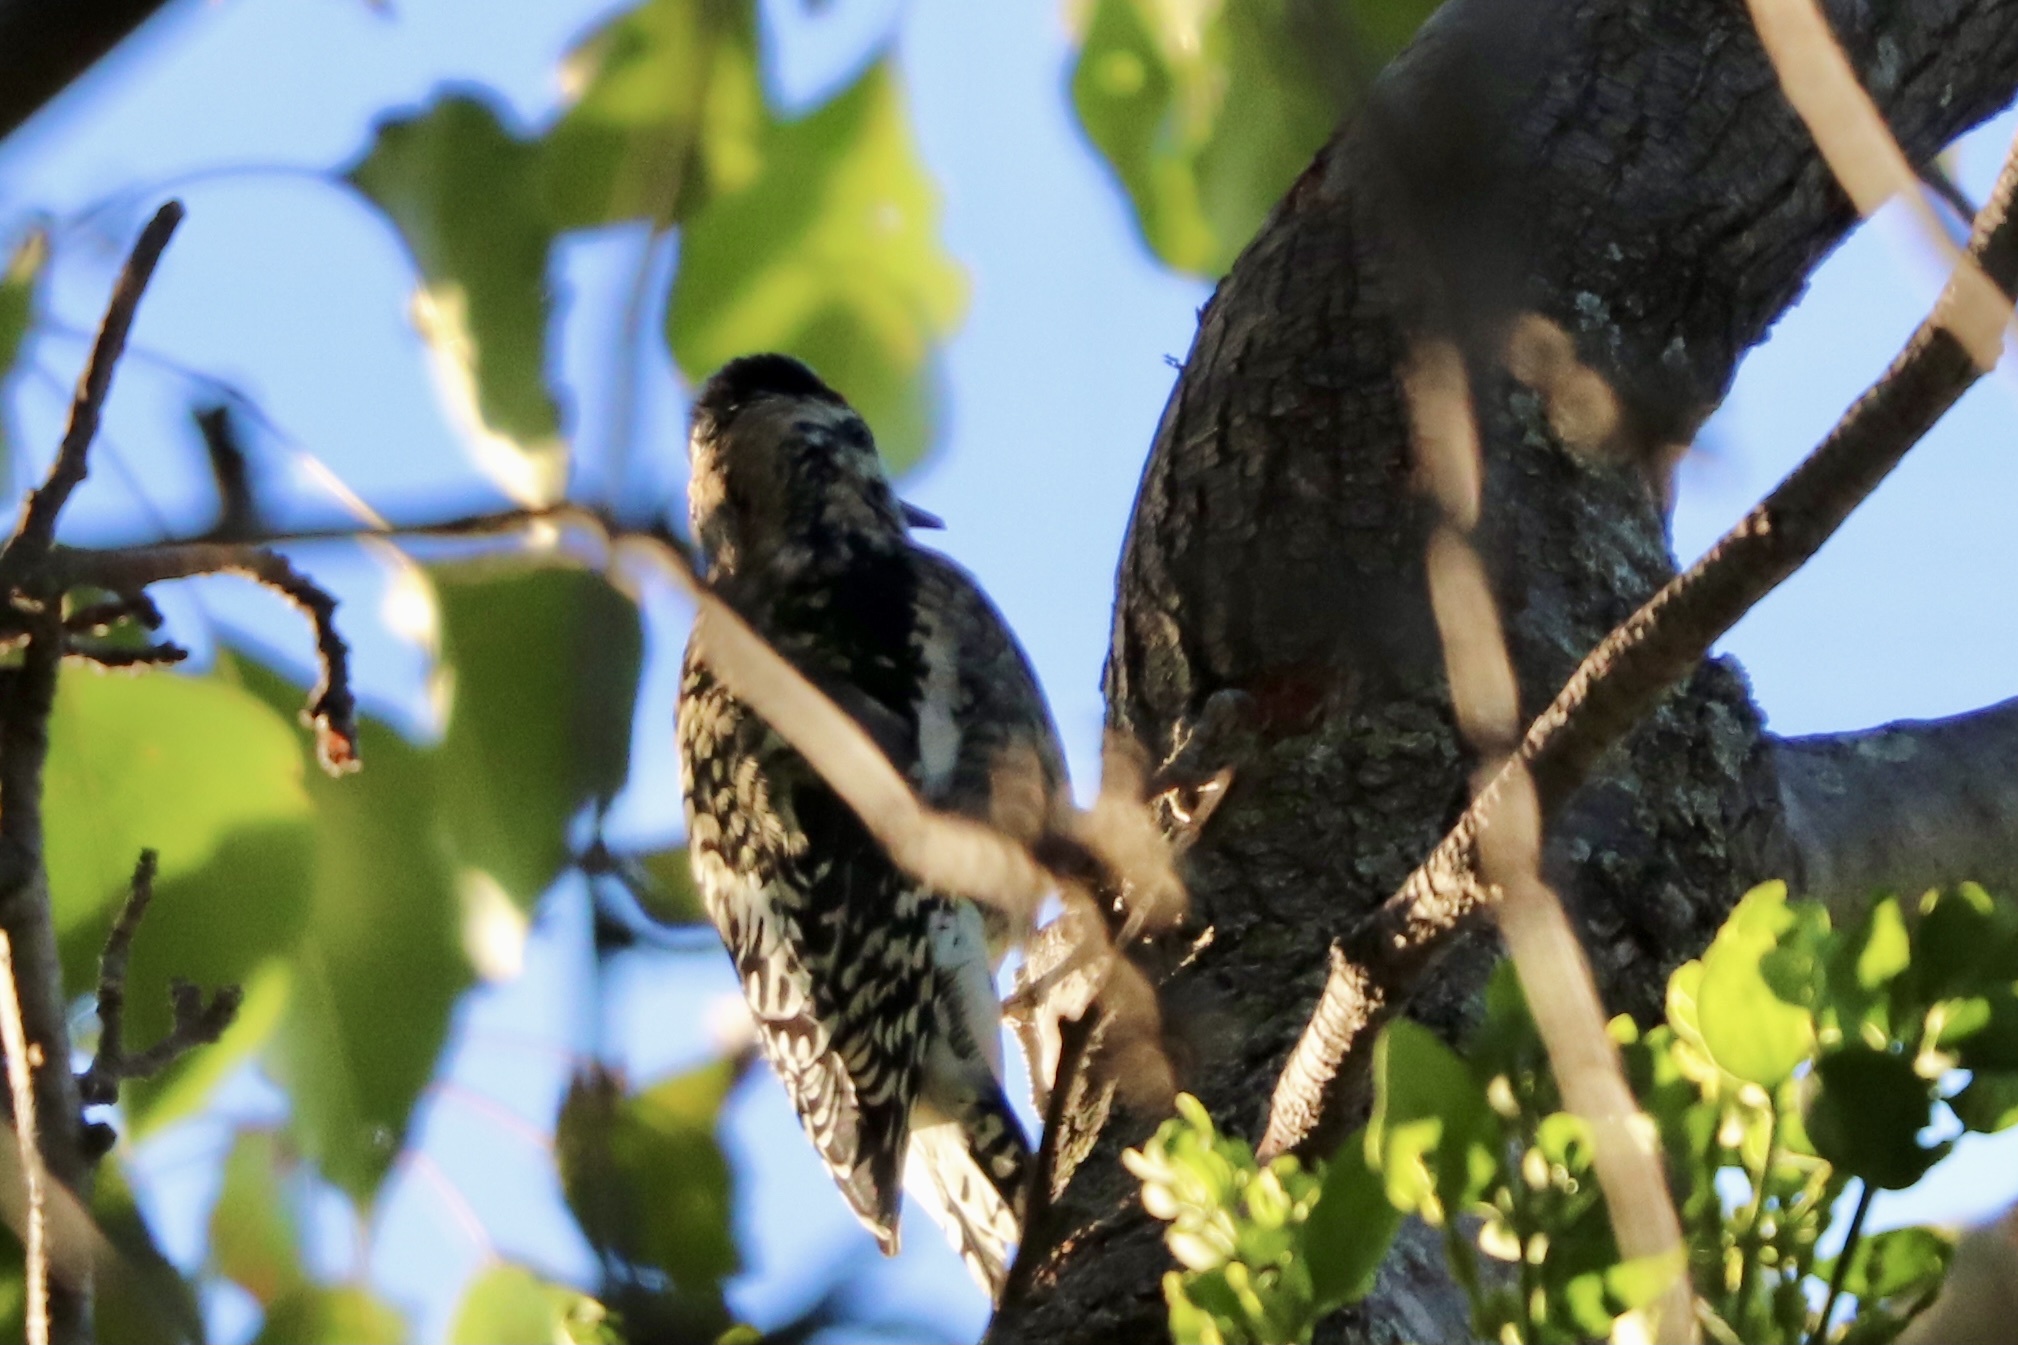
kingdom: Animalia
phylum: Chordata
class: Aves
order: Piciformes
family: Picidae
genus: Sphyrapicus
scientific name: Sphyrapicus varius
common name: Yellow-bellied sapsucker
